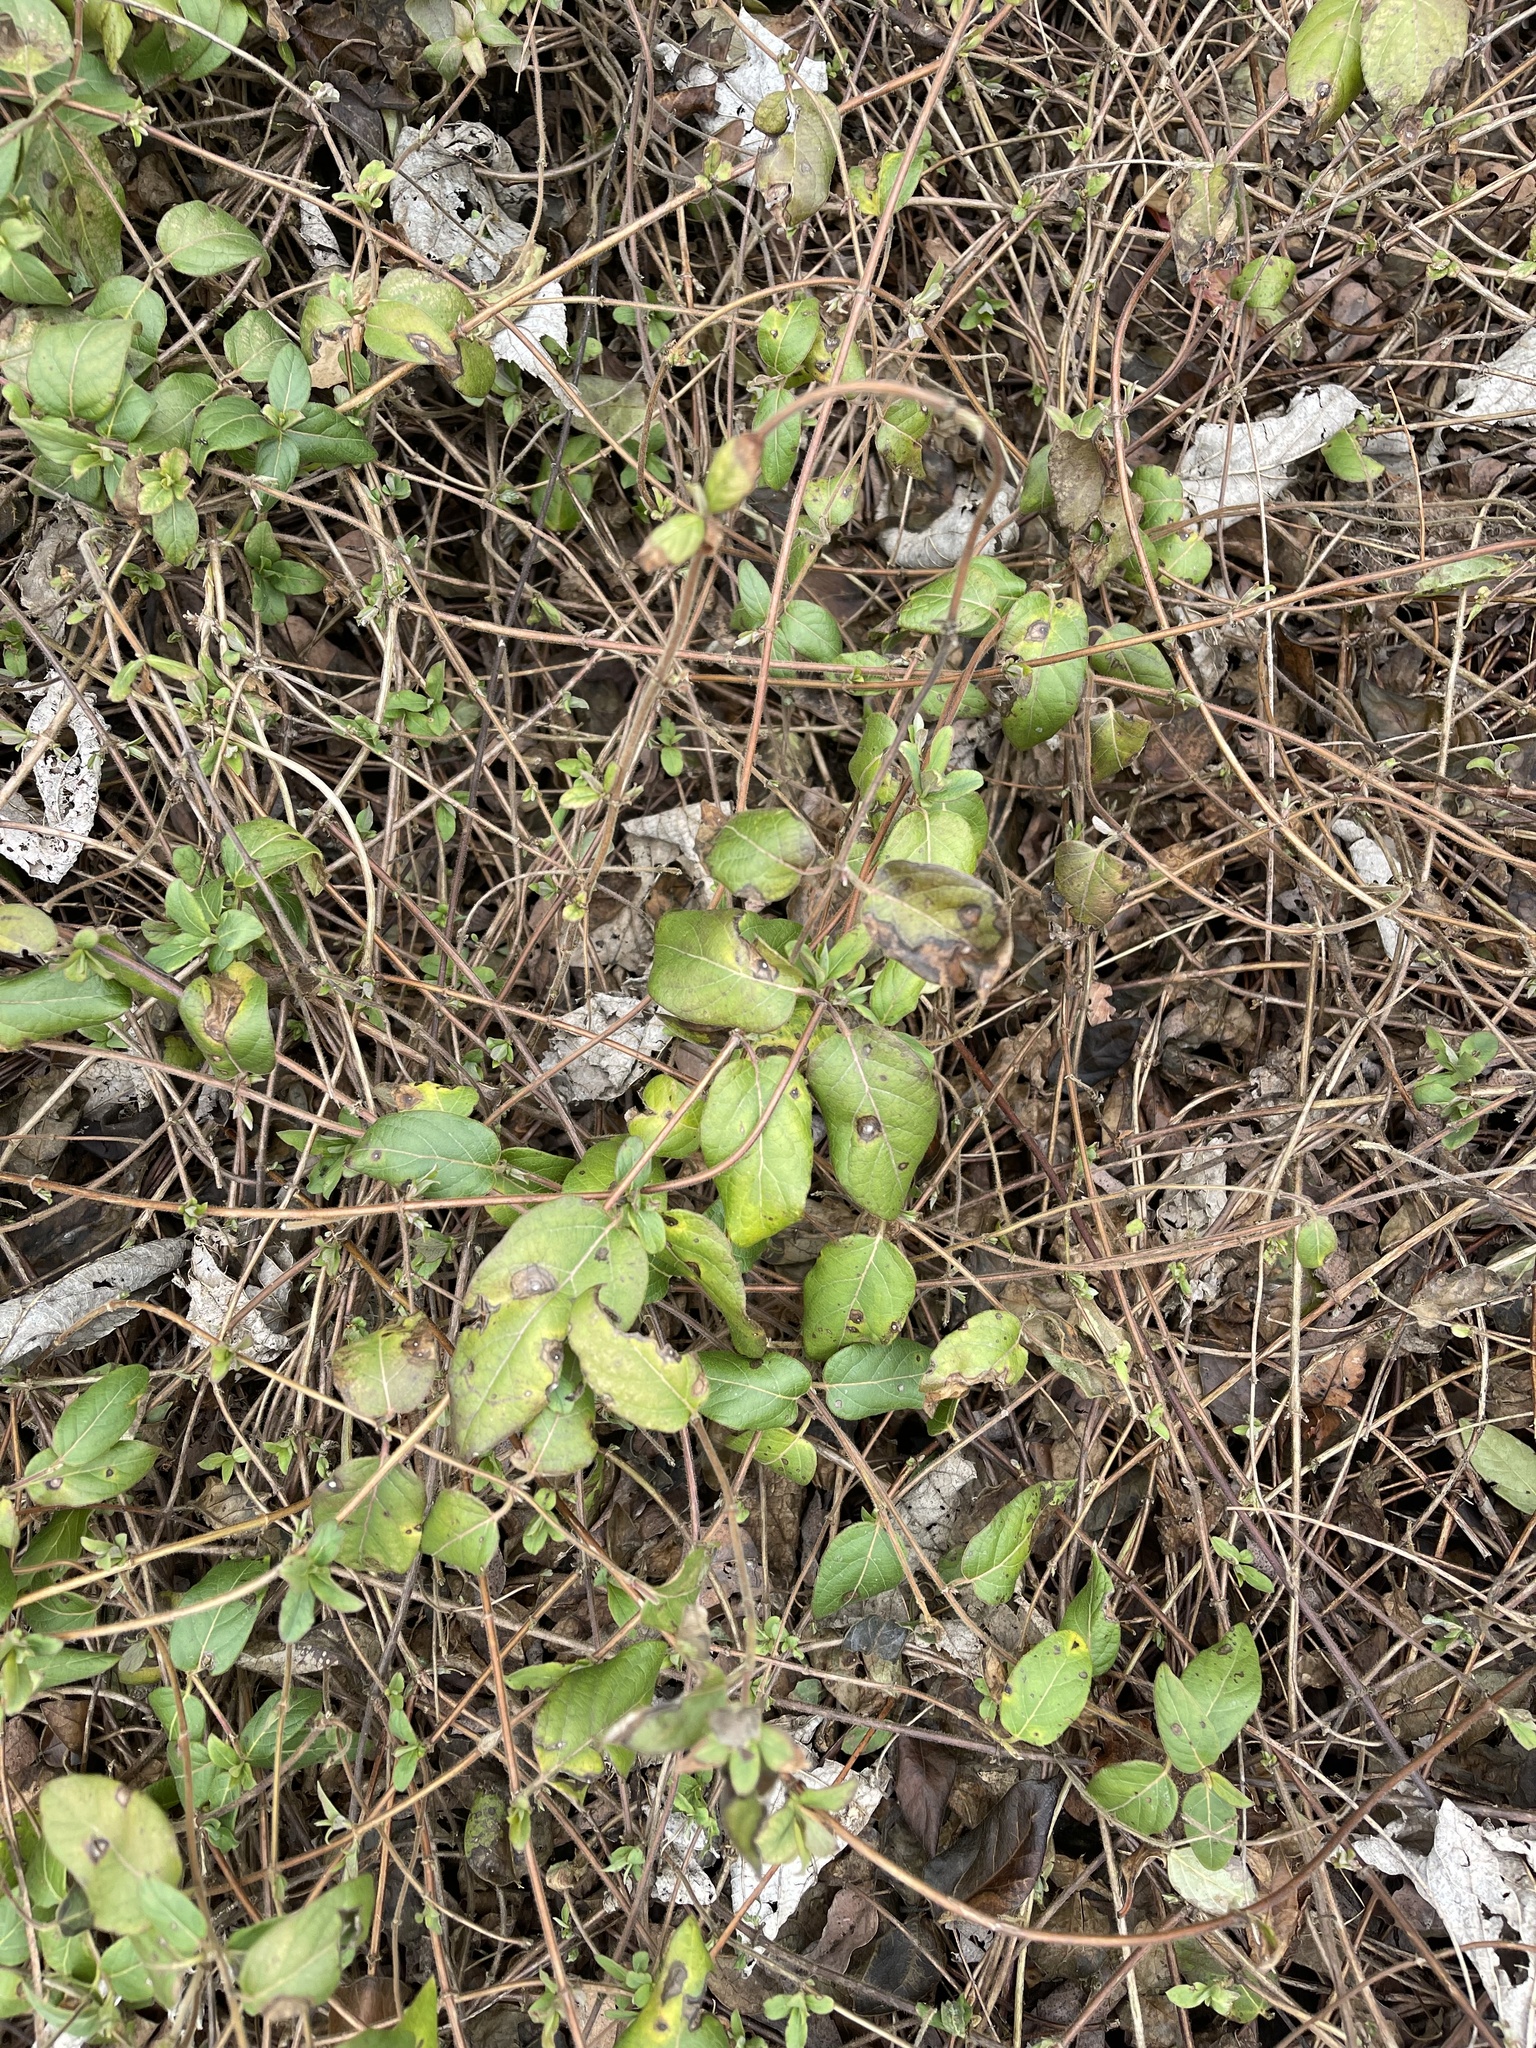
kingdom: Plantae
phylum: Tracheophyta
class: Magnoliopsida
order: Dipsacales
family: Caprifoliaceae
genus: Lonicera
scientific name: Lonicera japonica
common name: Japanese honeysuckle
